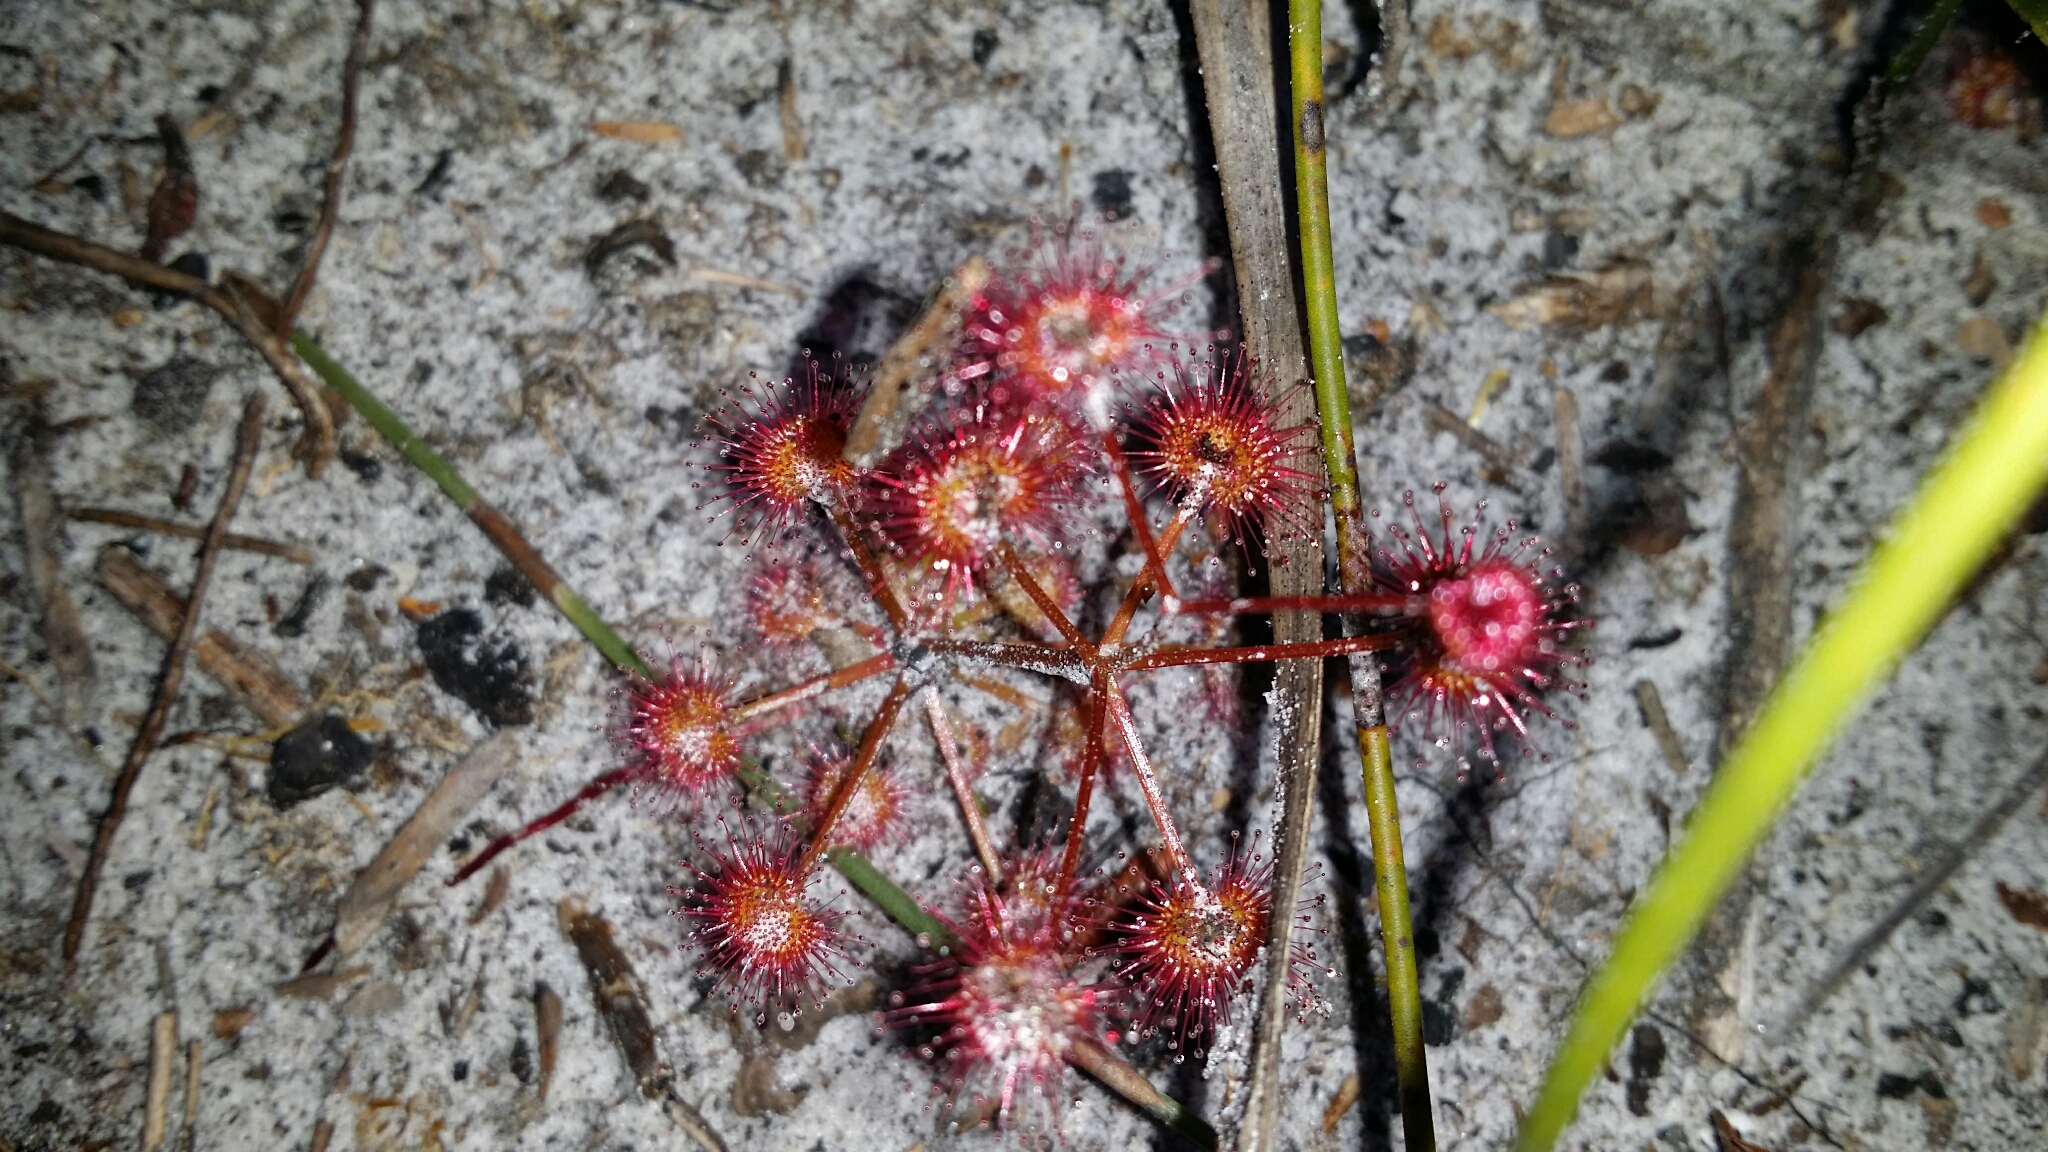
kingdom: Plantae
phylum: Tracheophyta
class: Magnoliopsida
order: Caryophyllales
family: Droseraceae
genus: Drosera
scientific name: Drosera stolonifera
